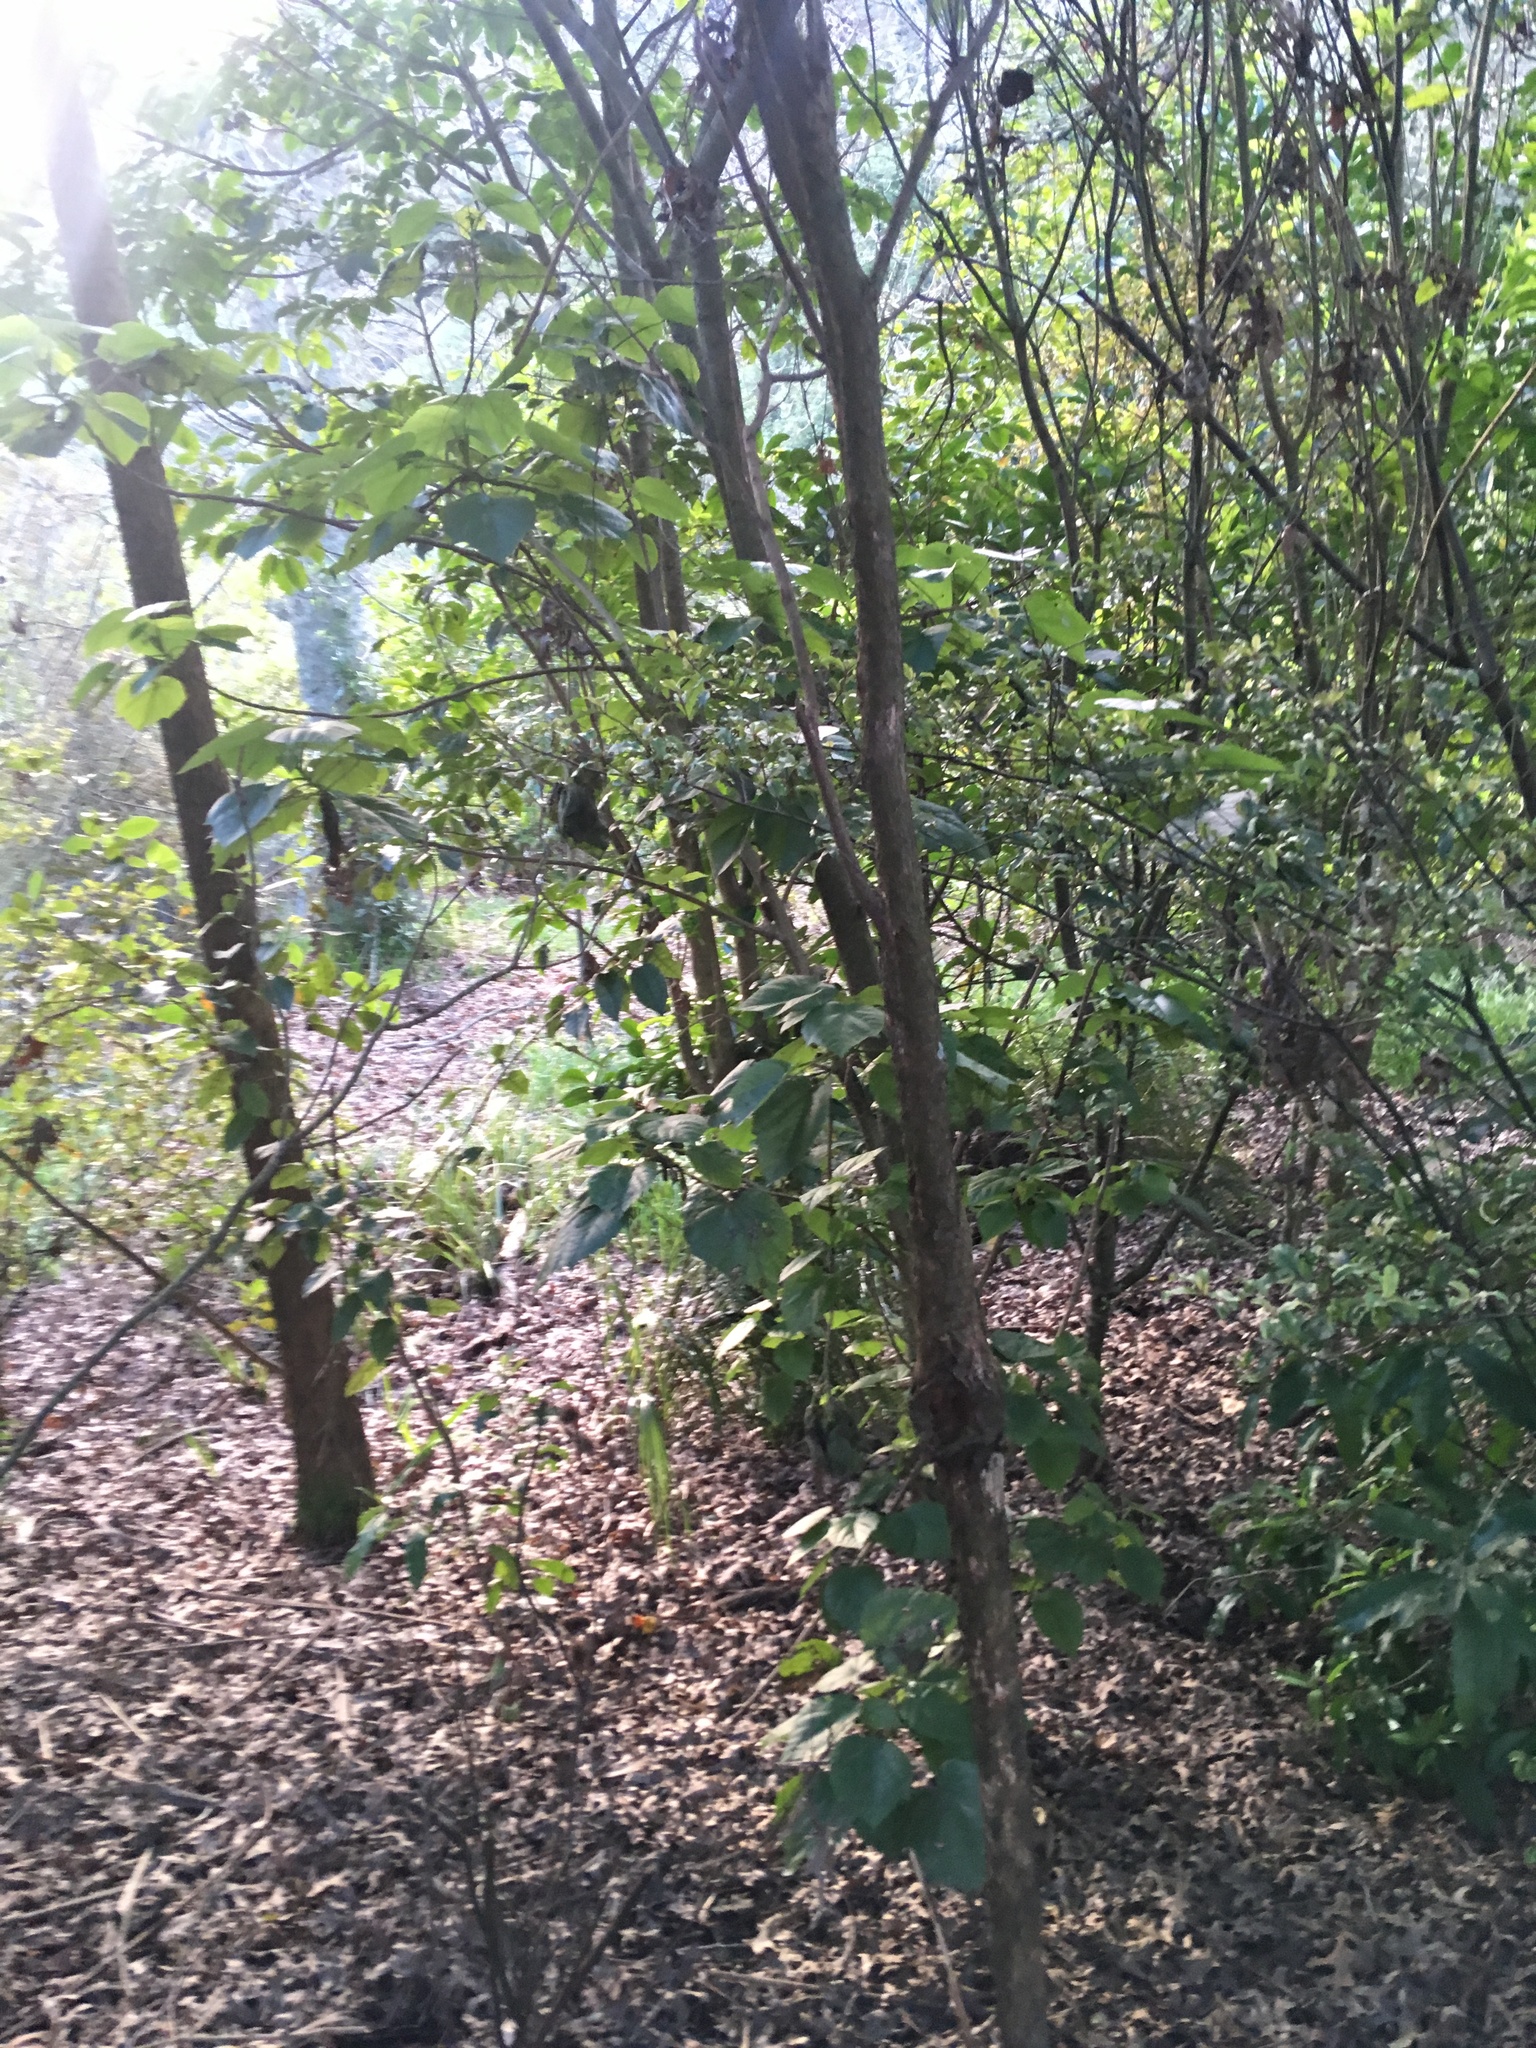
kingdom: Plantae
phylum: Tracheophyta
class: Magnoliopsida
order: Malvales
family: Malvaceae
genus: Entelea
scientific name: Entelea arborescens
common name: New zealand-mulberry
